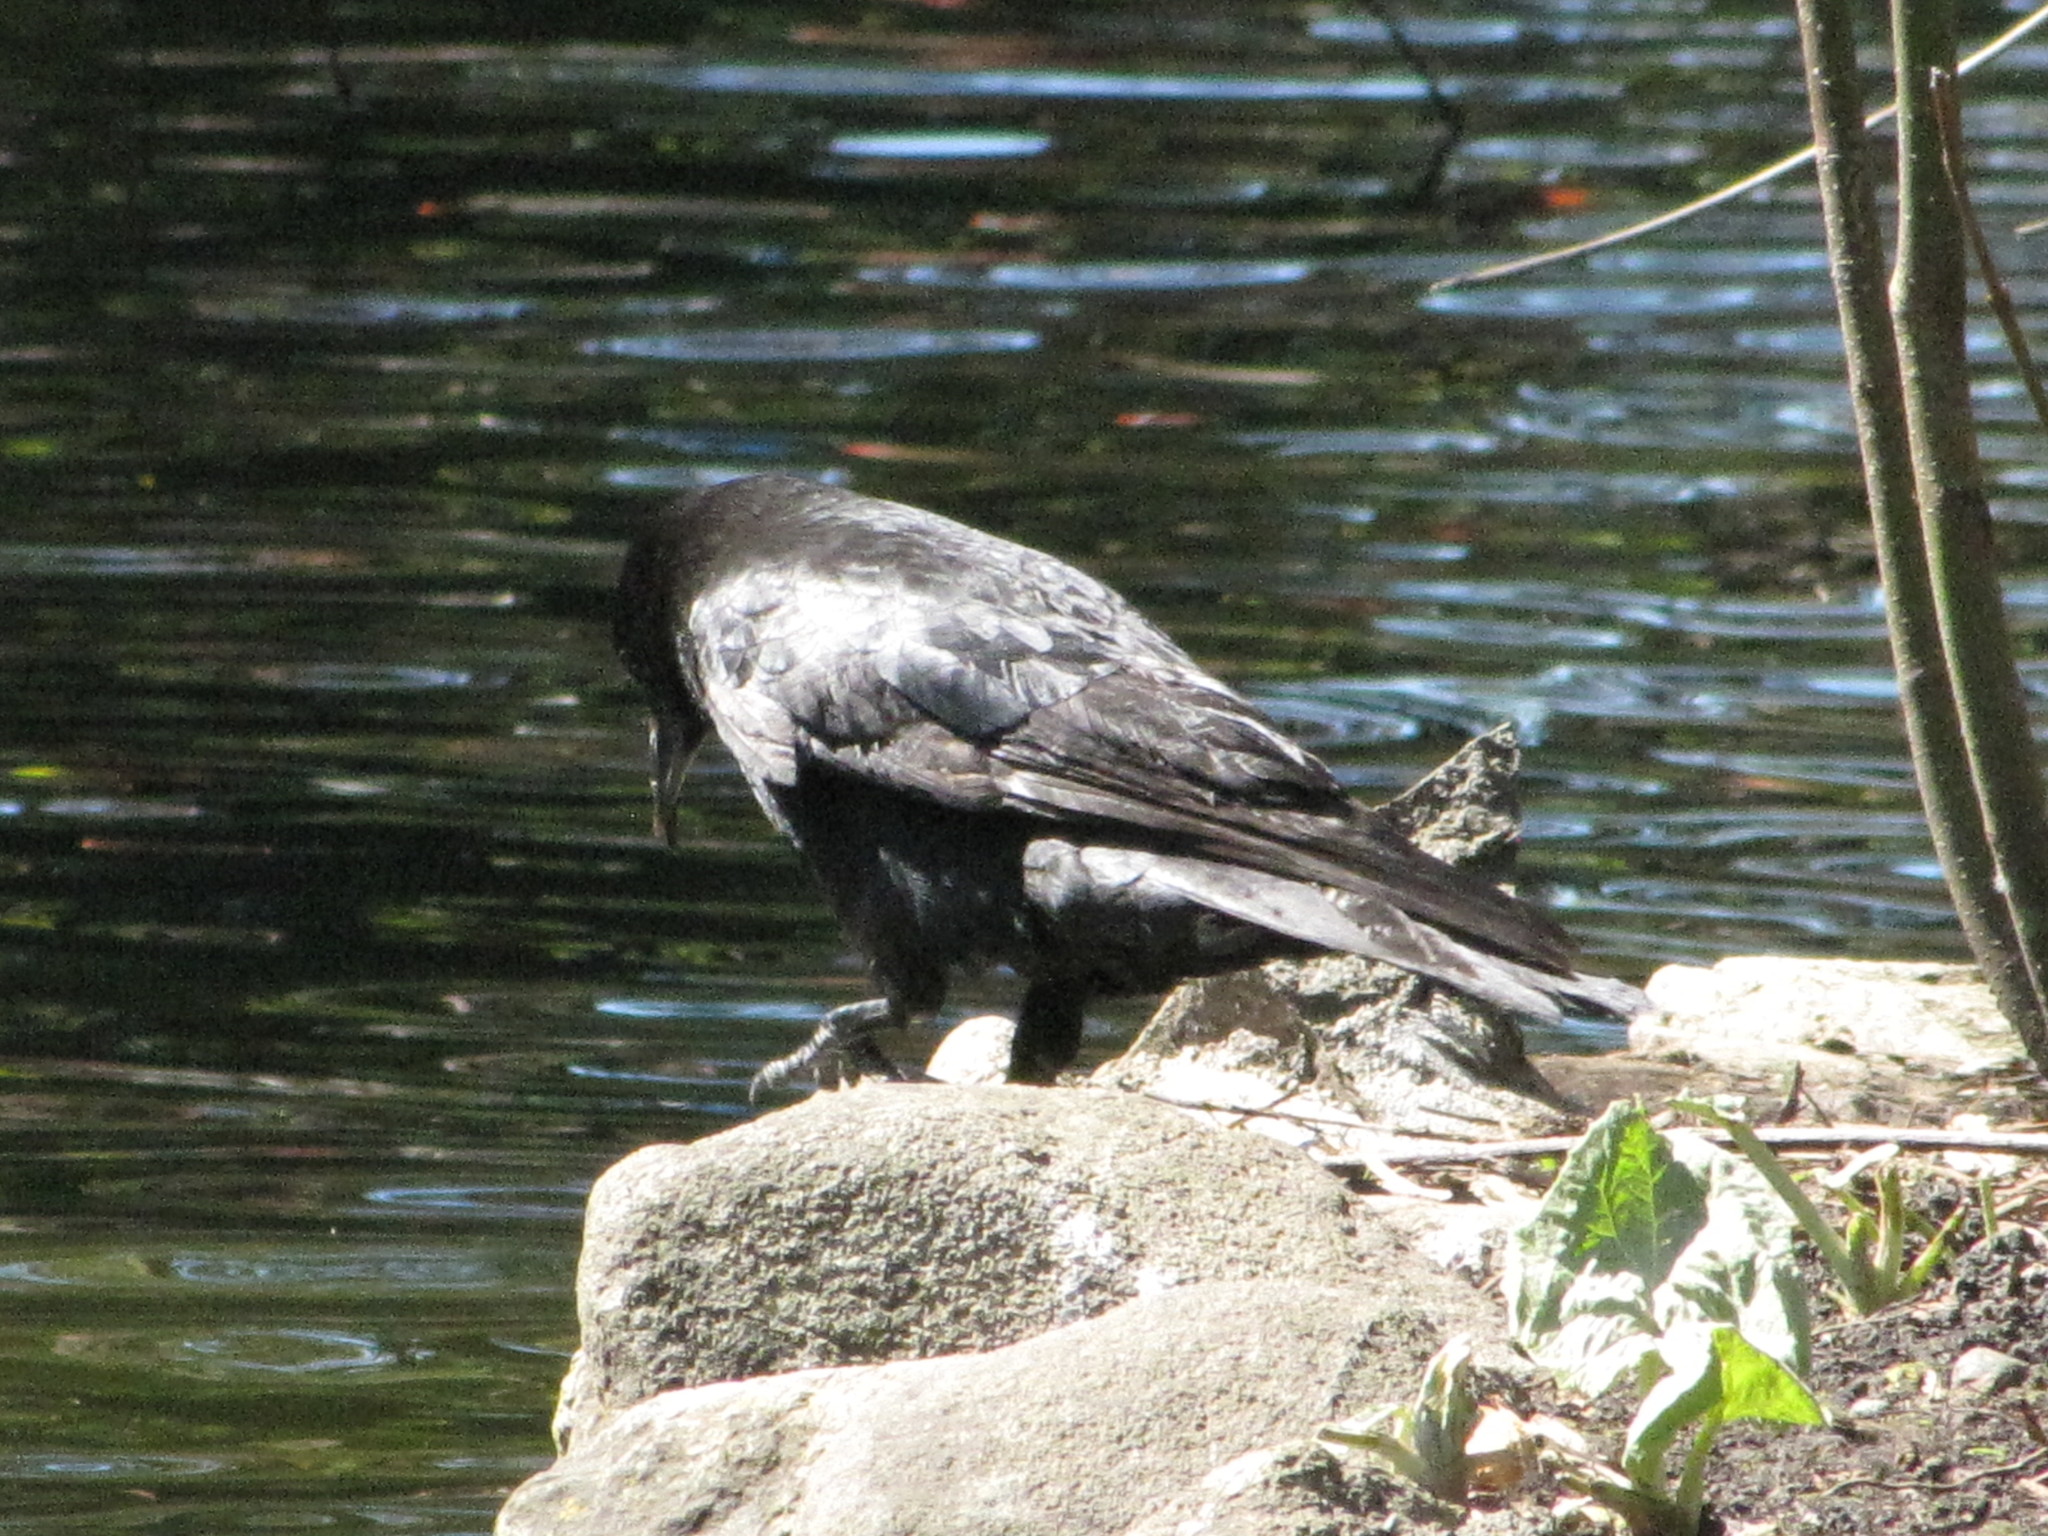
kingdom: Animalia
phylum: Chordata
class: Aves
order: Passeriformes
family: Corvidae
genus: Corvus
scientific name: Corvus brachyrhynchos
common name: American crow
